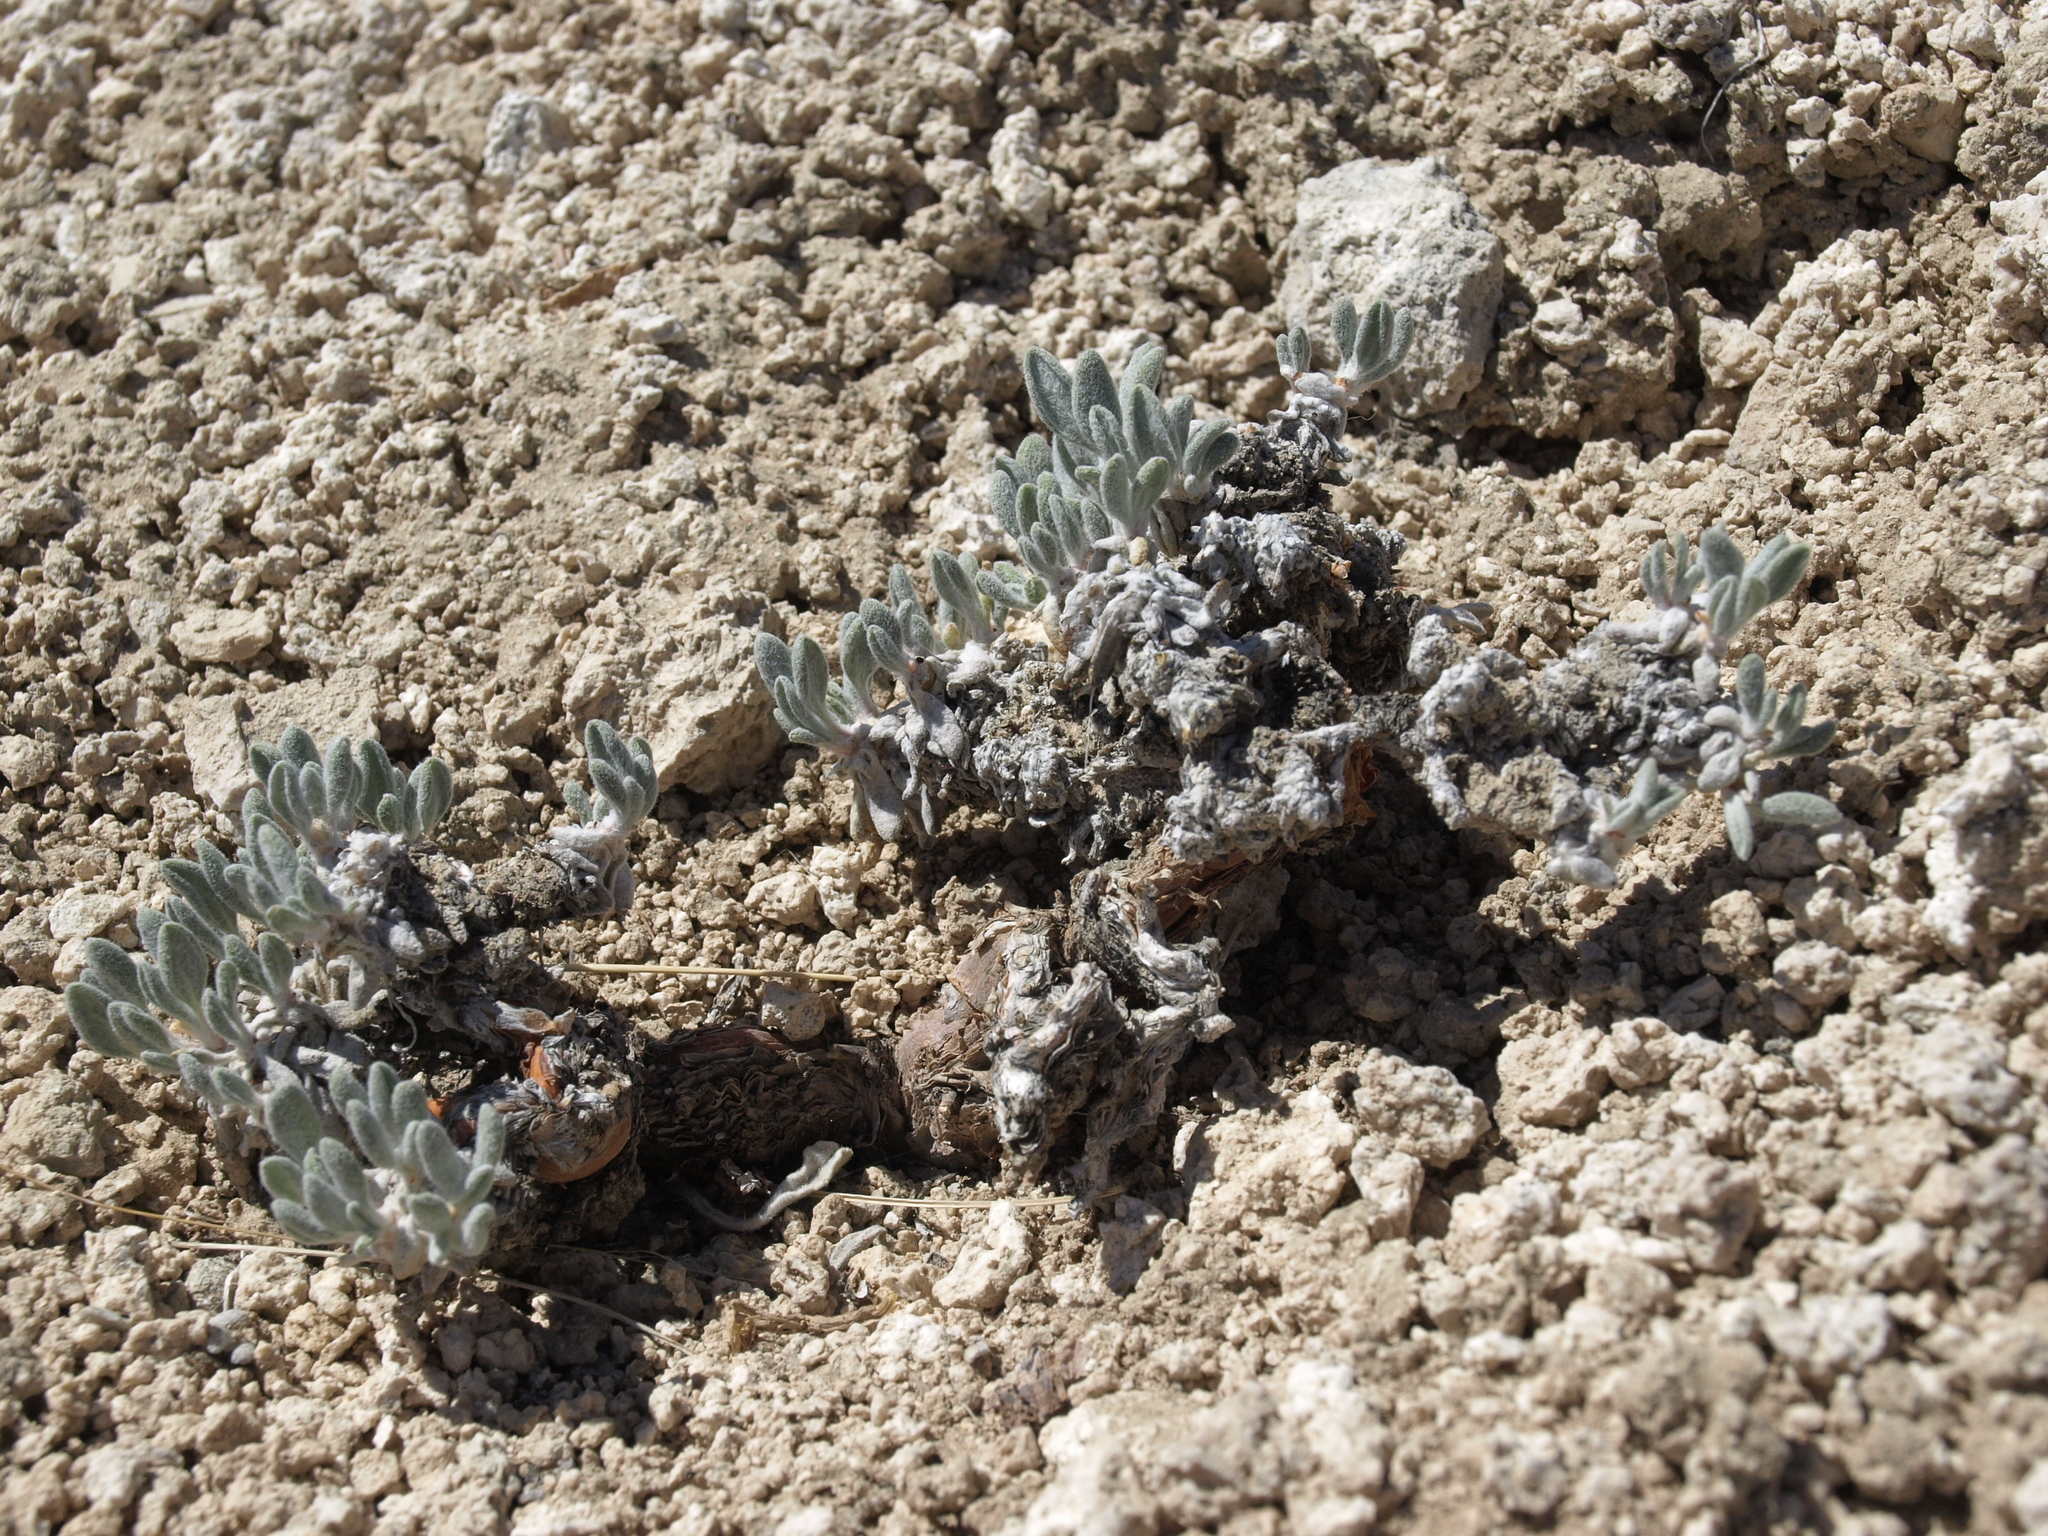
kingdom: Plantae
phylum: Tracheophyta
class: Magnoliopsida
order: Caryophyllales
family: Polygonaceae
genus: Eriogonum
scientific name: Eriogonum tiehmii
